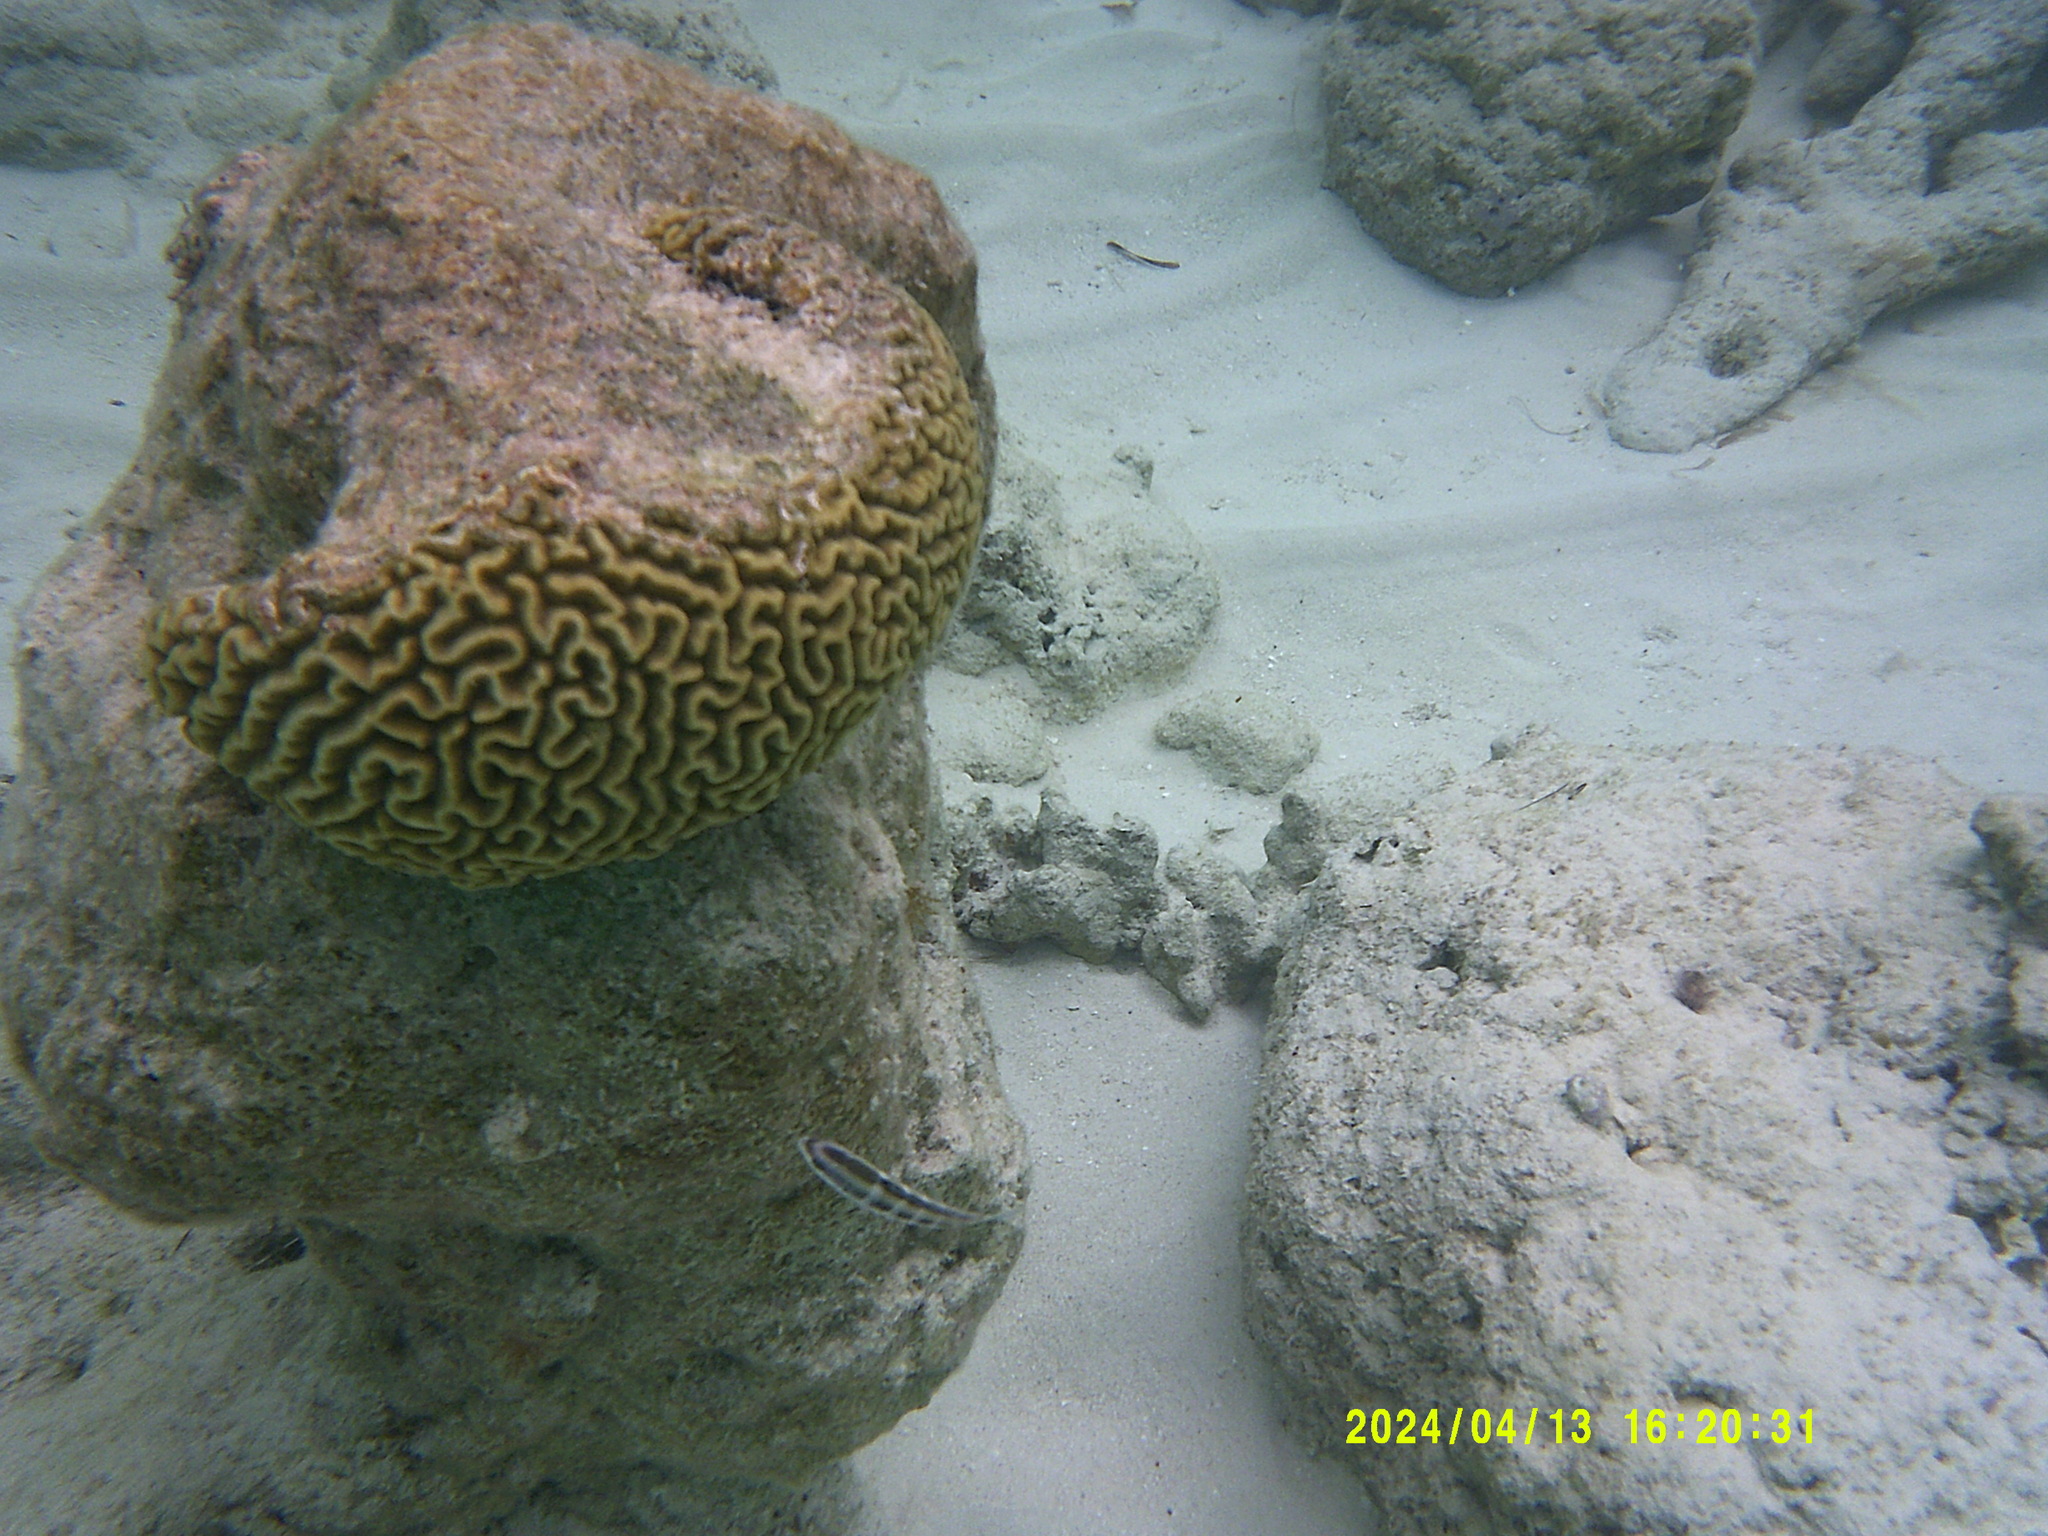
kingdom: Animalia
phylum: Chordata
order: Perciformes
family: Labridae
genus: Thalassoma
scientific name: Thalassoma bifasciatum
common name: Bluehead wrasse
